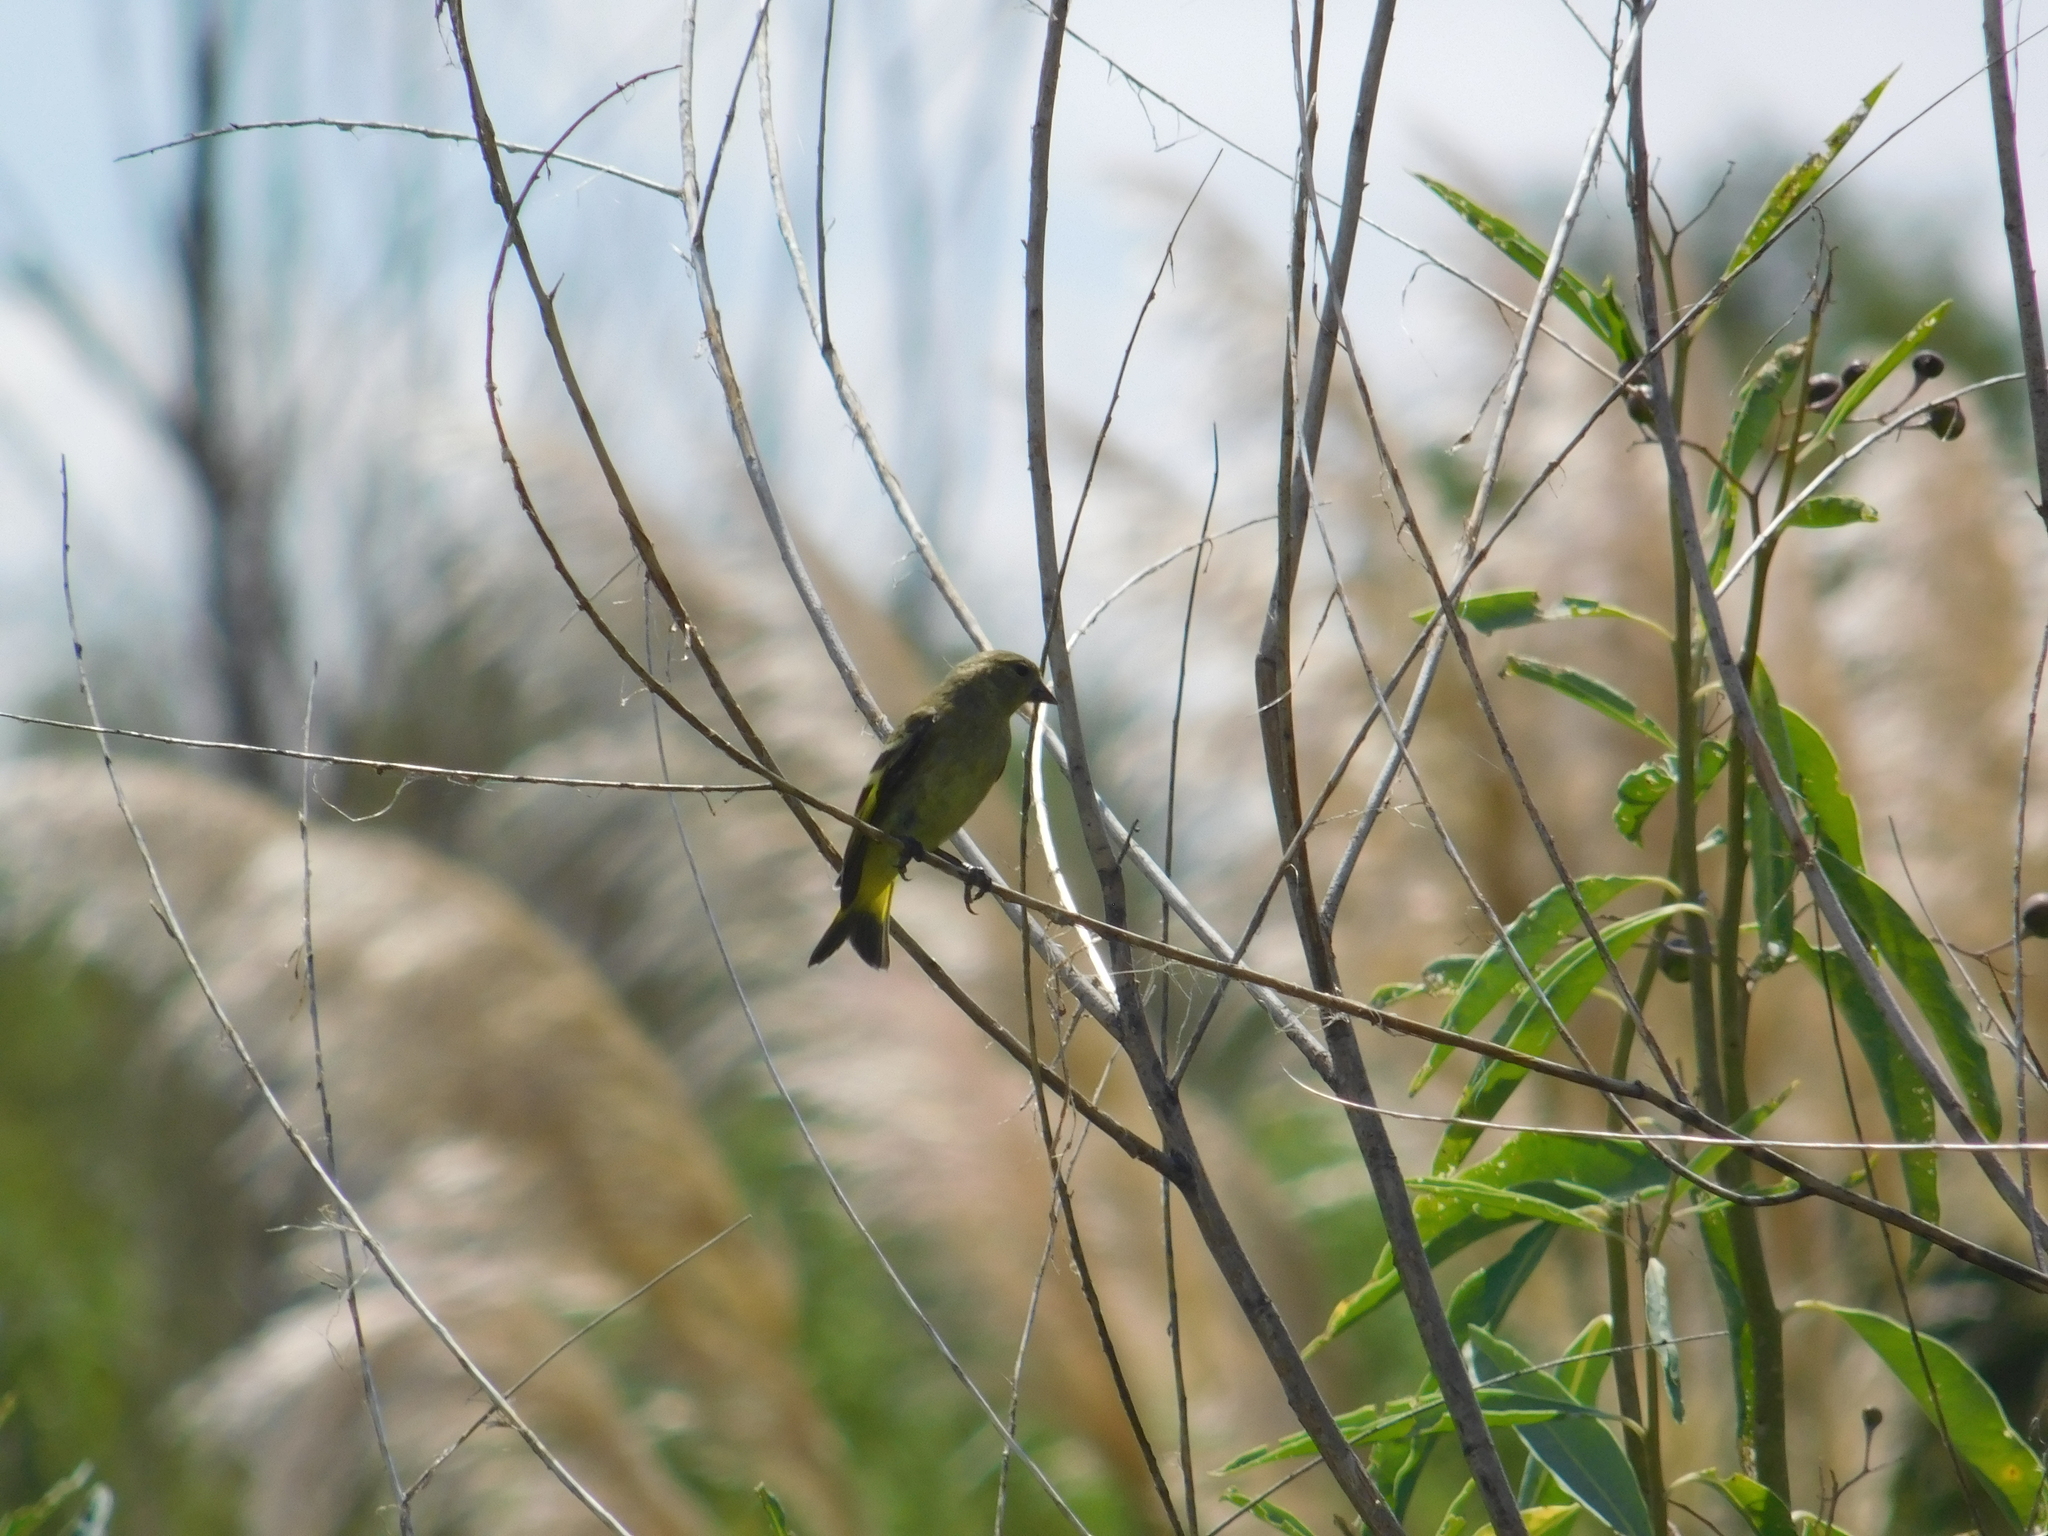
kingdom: Animalia
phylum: Chordata
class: Aves
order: Passeriformes
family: Fringillidae
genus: Spinus
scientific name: Spinus magellanicus
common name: Hooded siskin
